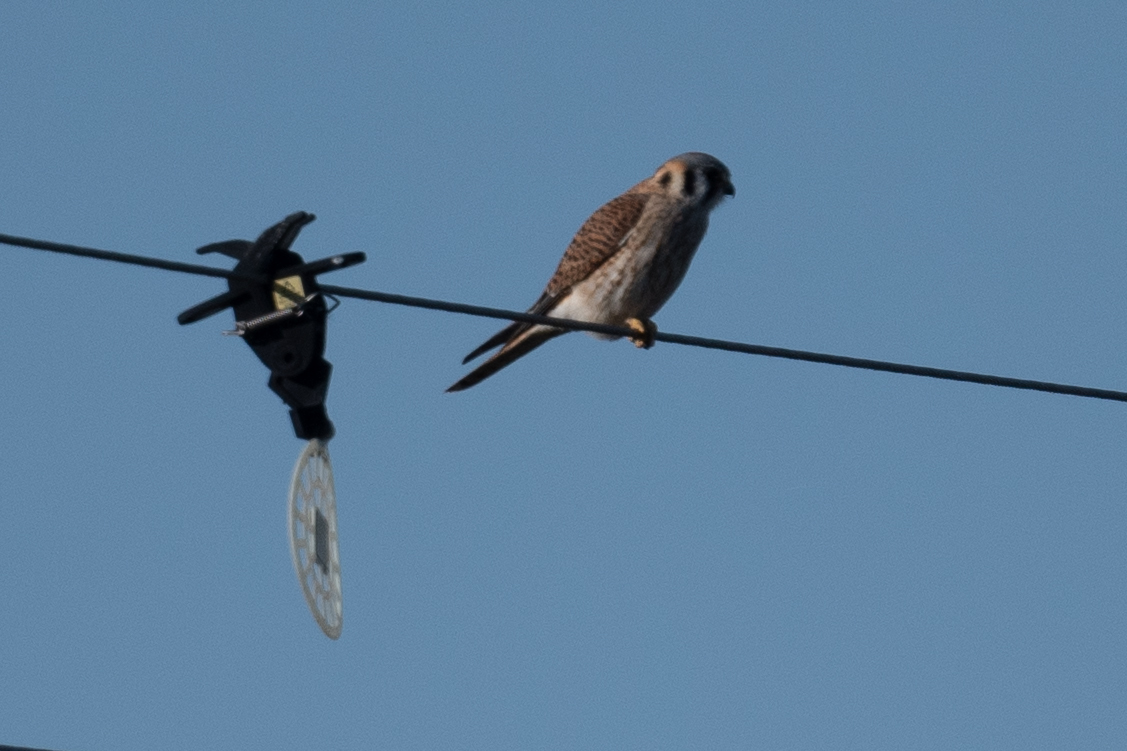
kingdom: Animalia
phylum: Chordata
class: Aves
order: Falconiformes
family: Falconidae
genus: Falco
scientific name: Falco sparverius
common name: American kestrel
